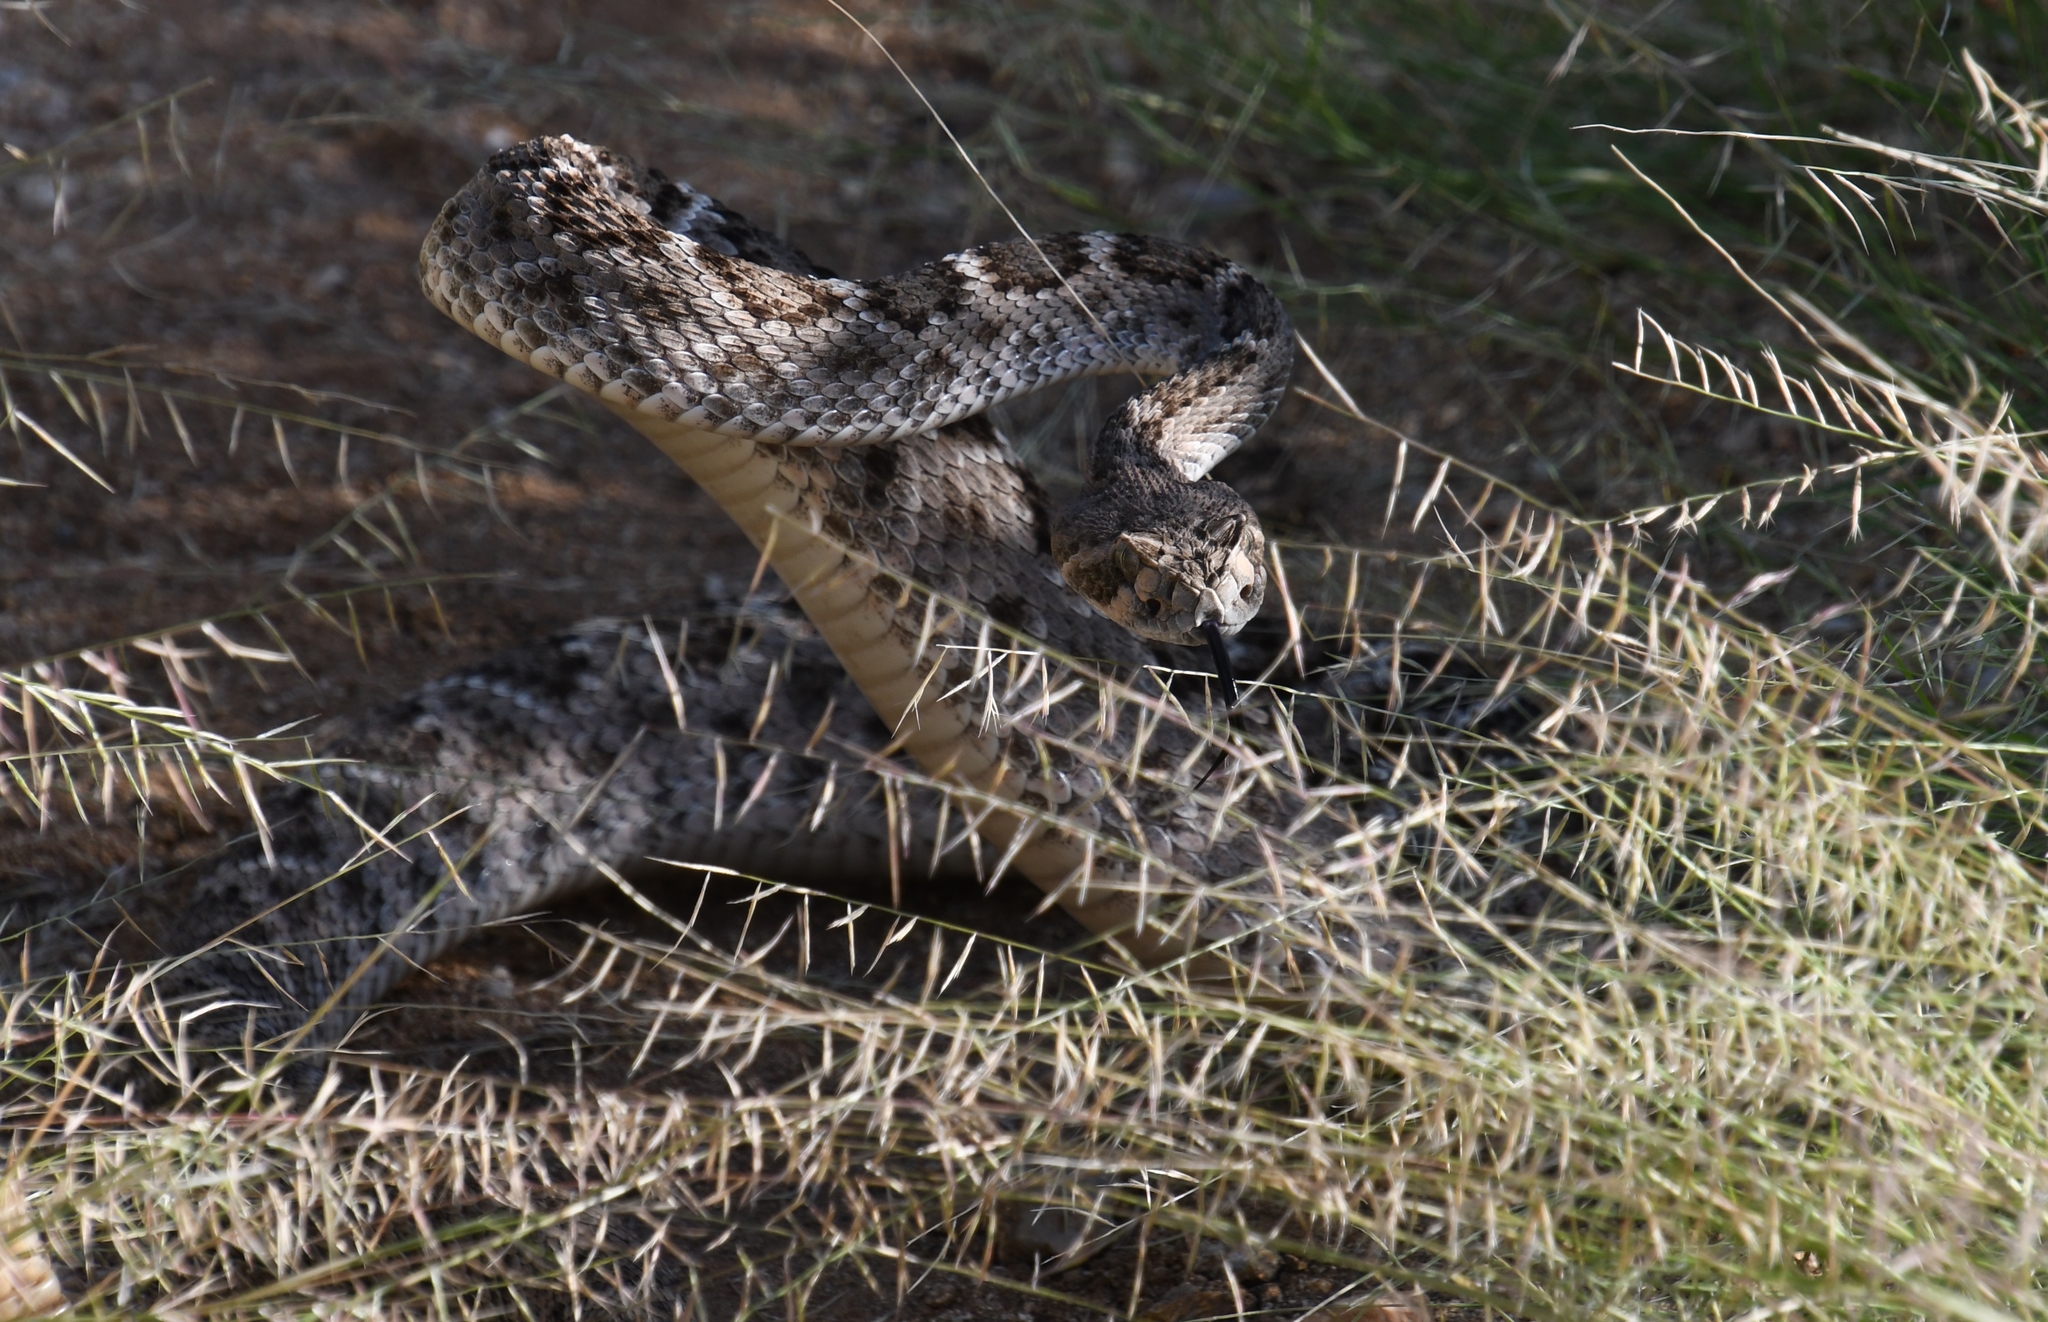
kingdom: Animalia
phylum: Chordata
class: Squamata
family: Viperidae
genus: Crotalus
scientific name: Crotalus atrox
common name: Western diamond-backed rattlesnake
